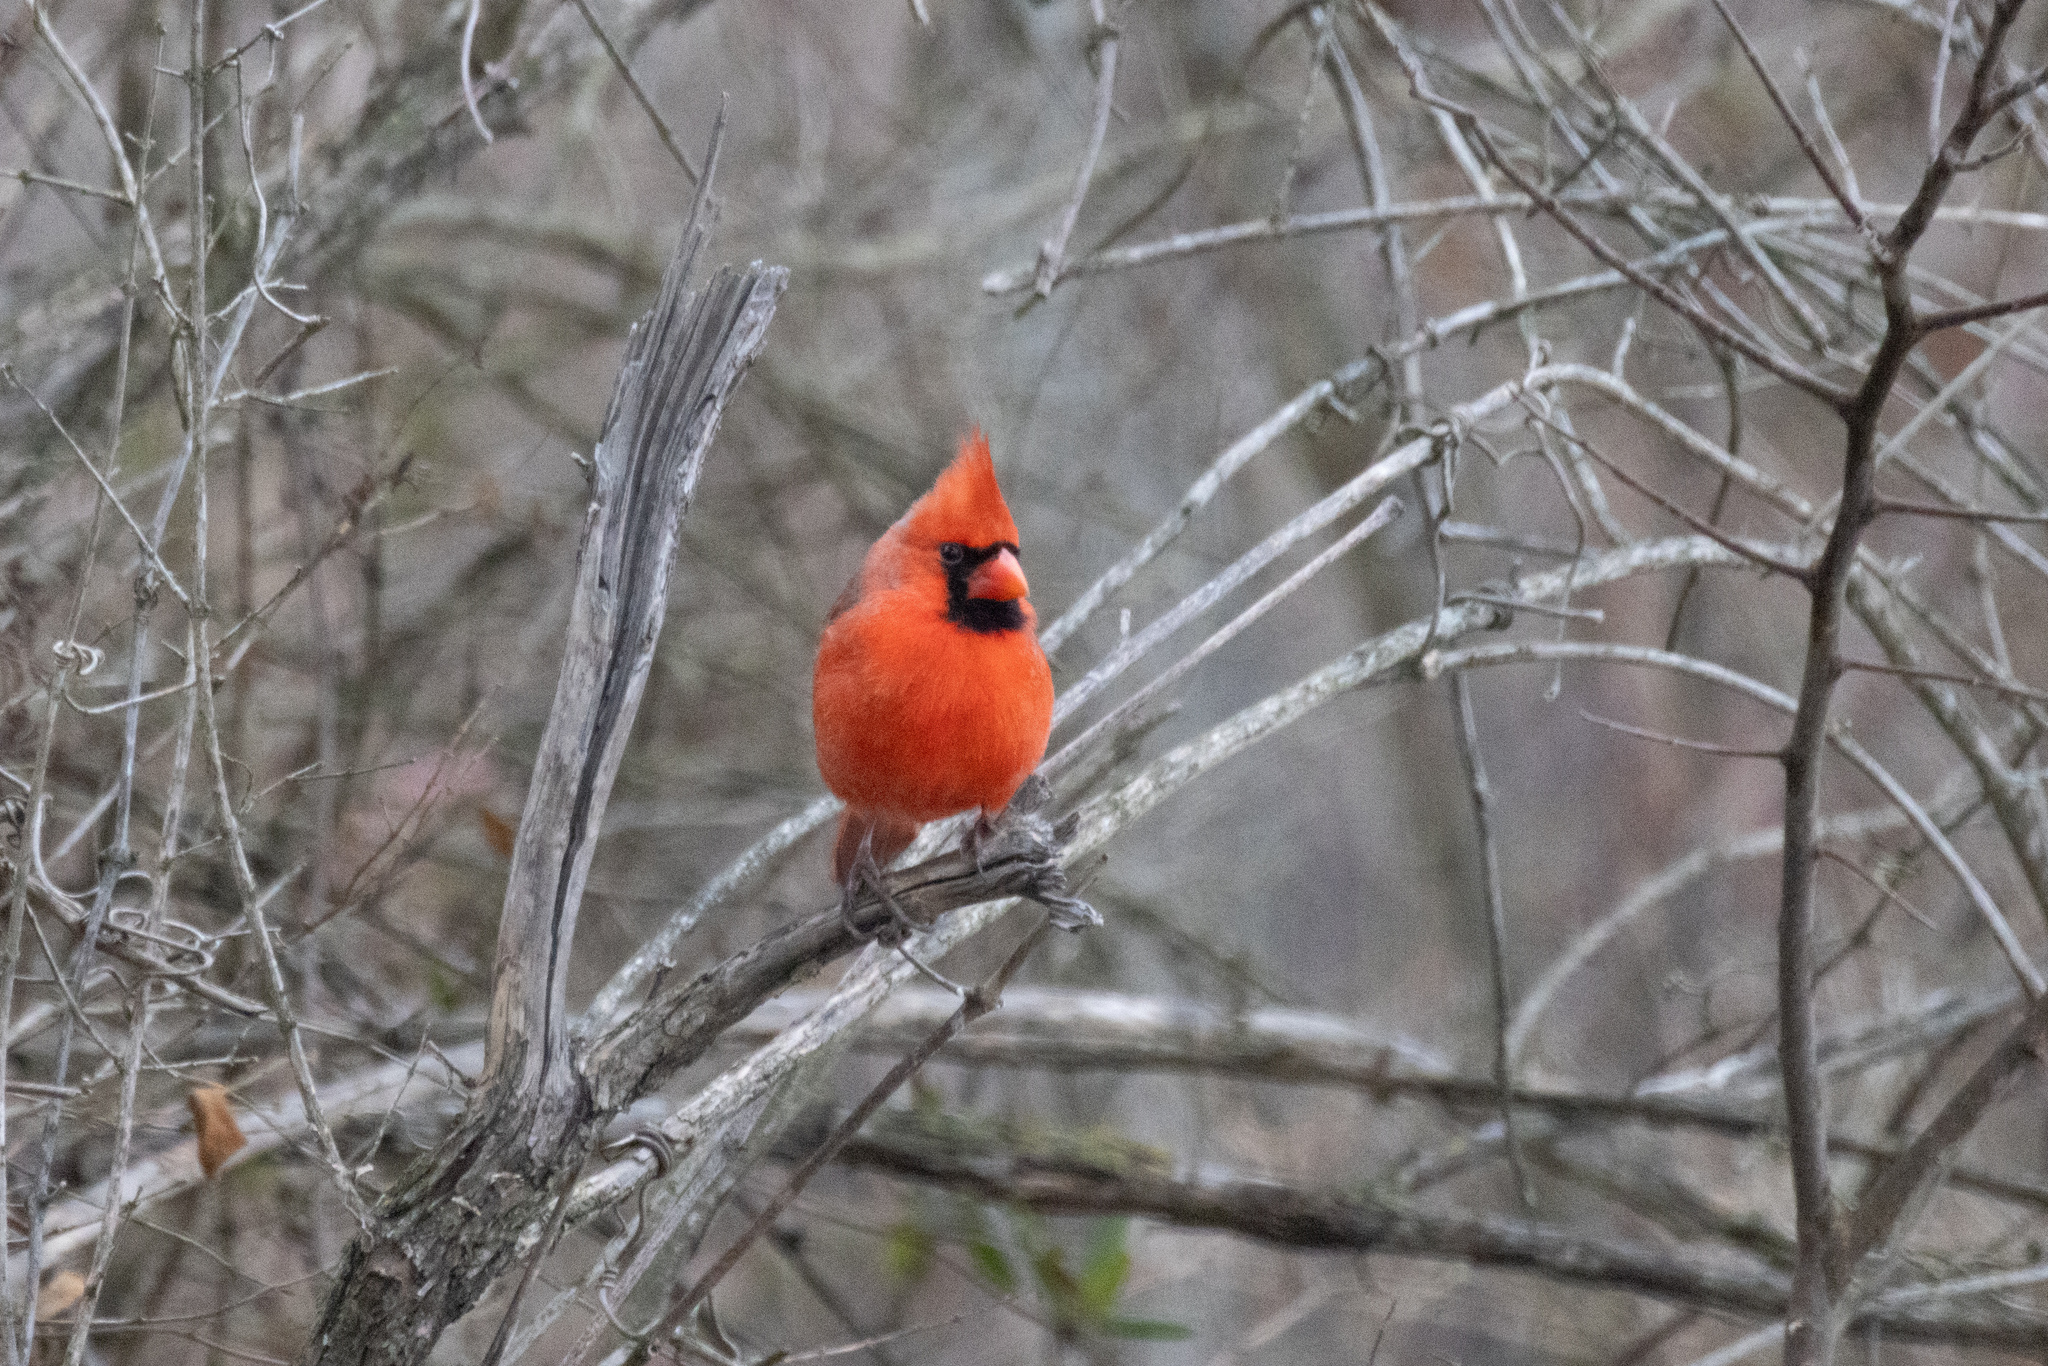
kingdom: Animalia
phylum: Chordata
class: Aves
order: Passeriformes
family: Cardinalidae
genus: Cardinalis
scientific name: Cardinalis cardinalis
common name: Northern cardinal
